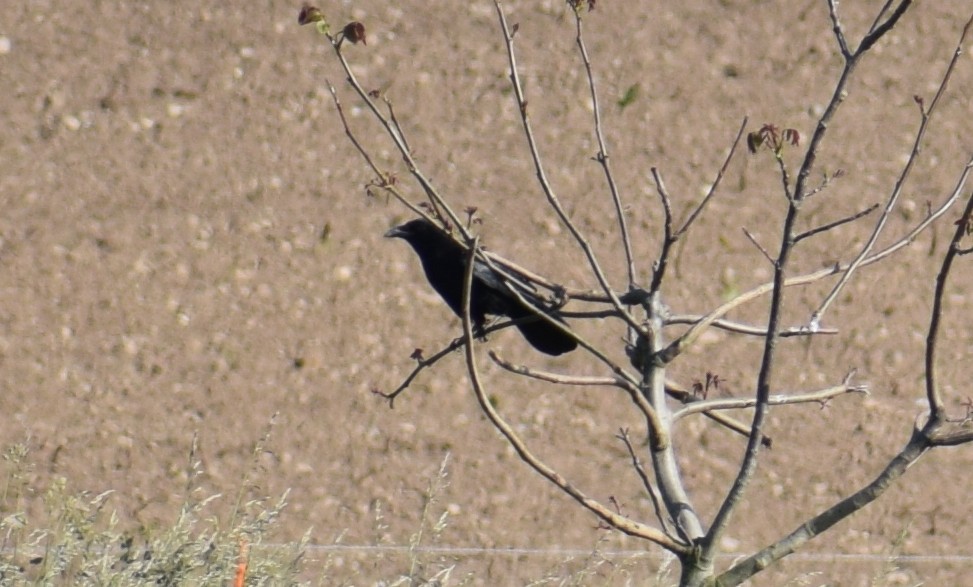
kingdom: Animalia
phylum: Chordata
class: Aves
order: Passeriformes
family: Corvidae
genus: Corvus
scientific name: Corvus corone
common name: Carrion crow
